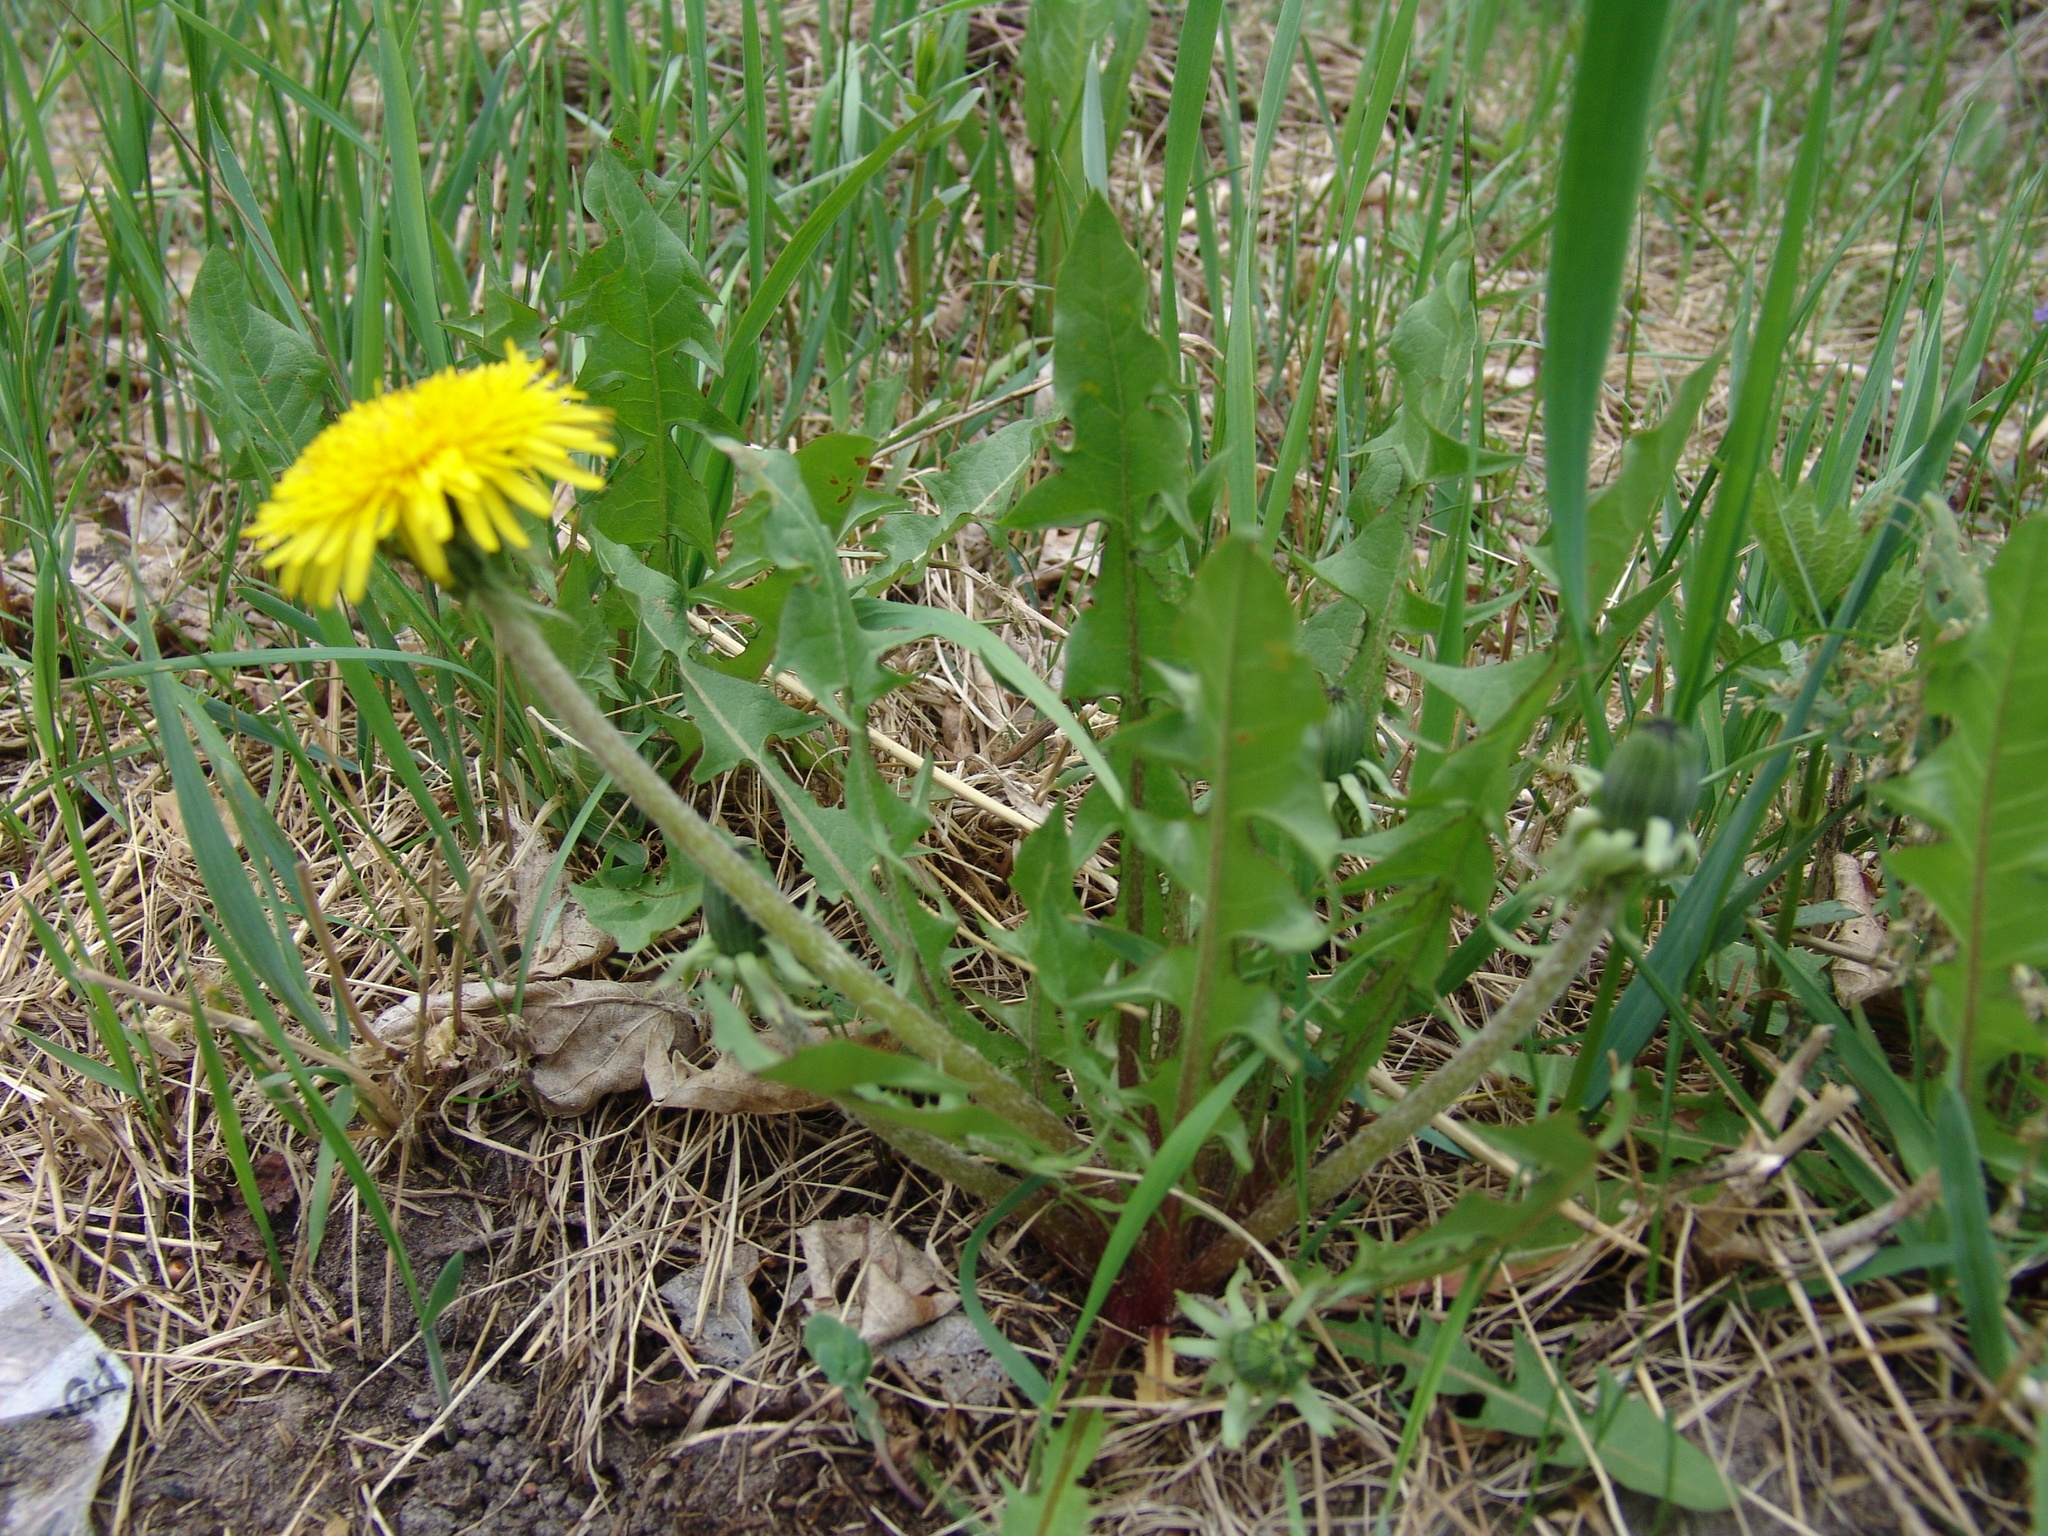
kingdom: Plantae
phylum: Tracheophyta
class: Magnoliopsida
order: Asterales
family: Asteraceae
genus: Taraxacum
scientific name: Taraxacum officinale
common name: Common dandelion
